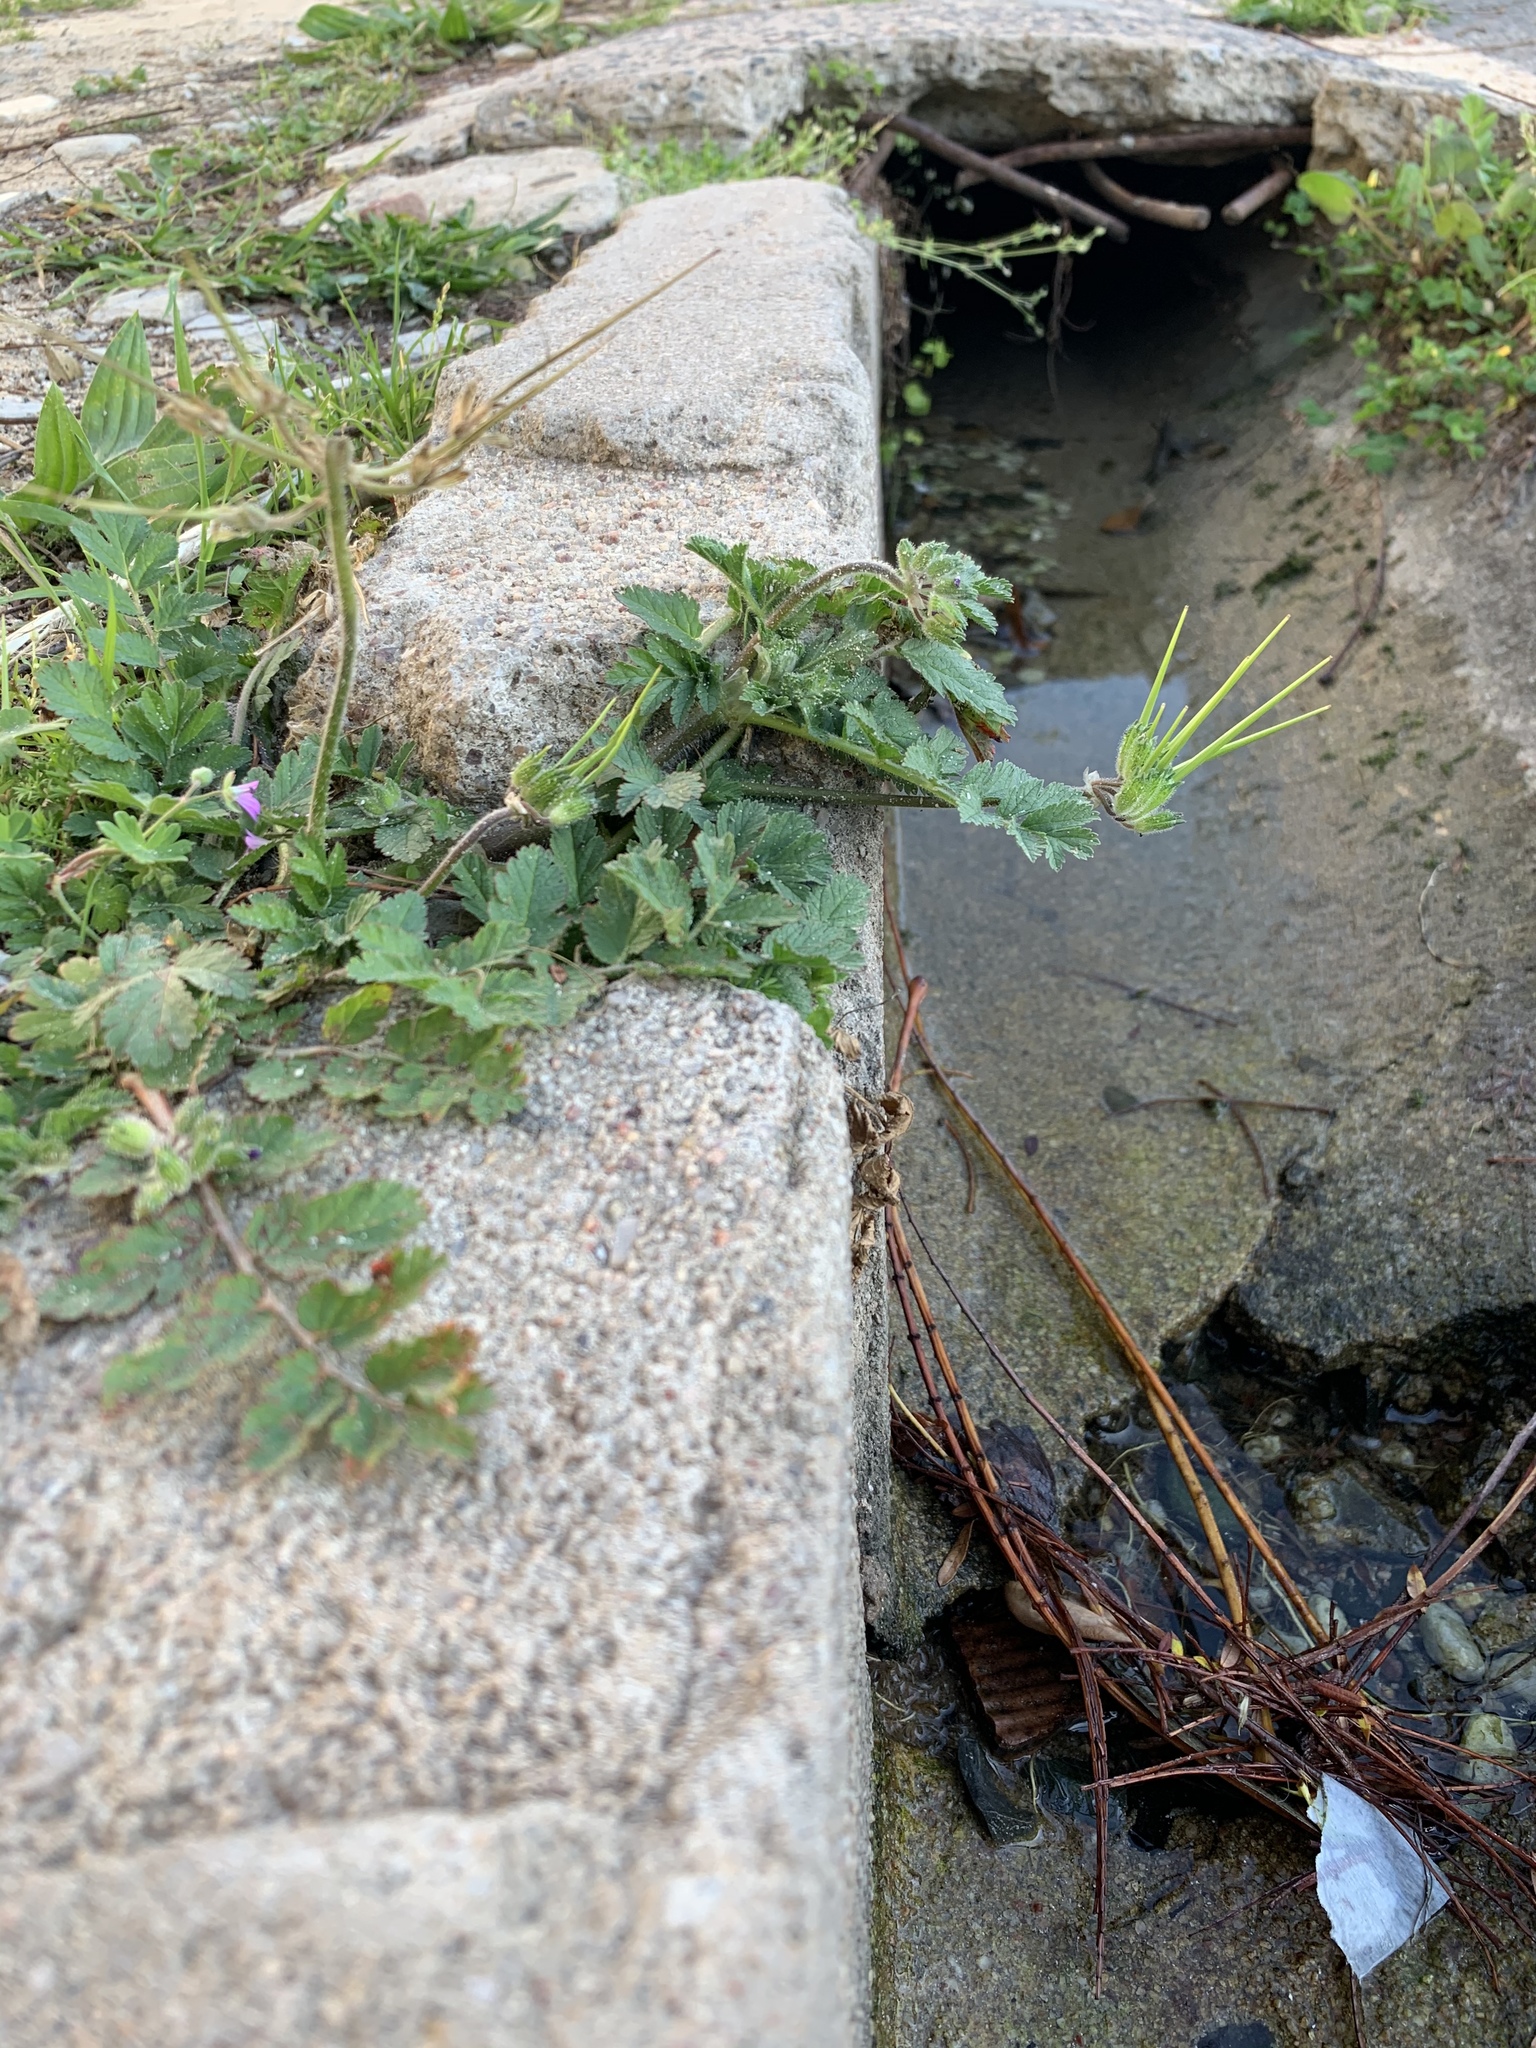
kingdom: Plantae
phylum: Tracheophyta
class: Magnoliopsida
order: Geraniales
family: Geraniaceae
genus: Erodium
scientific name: Erodium moschatum
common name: Musk stork's-bill
